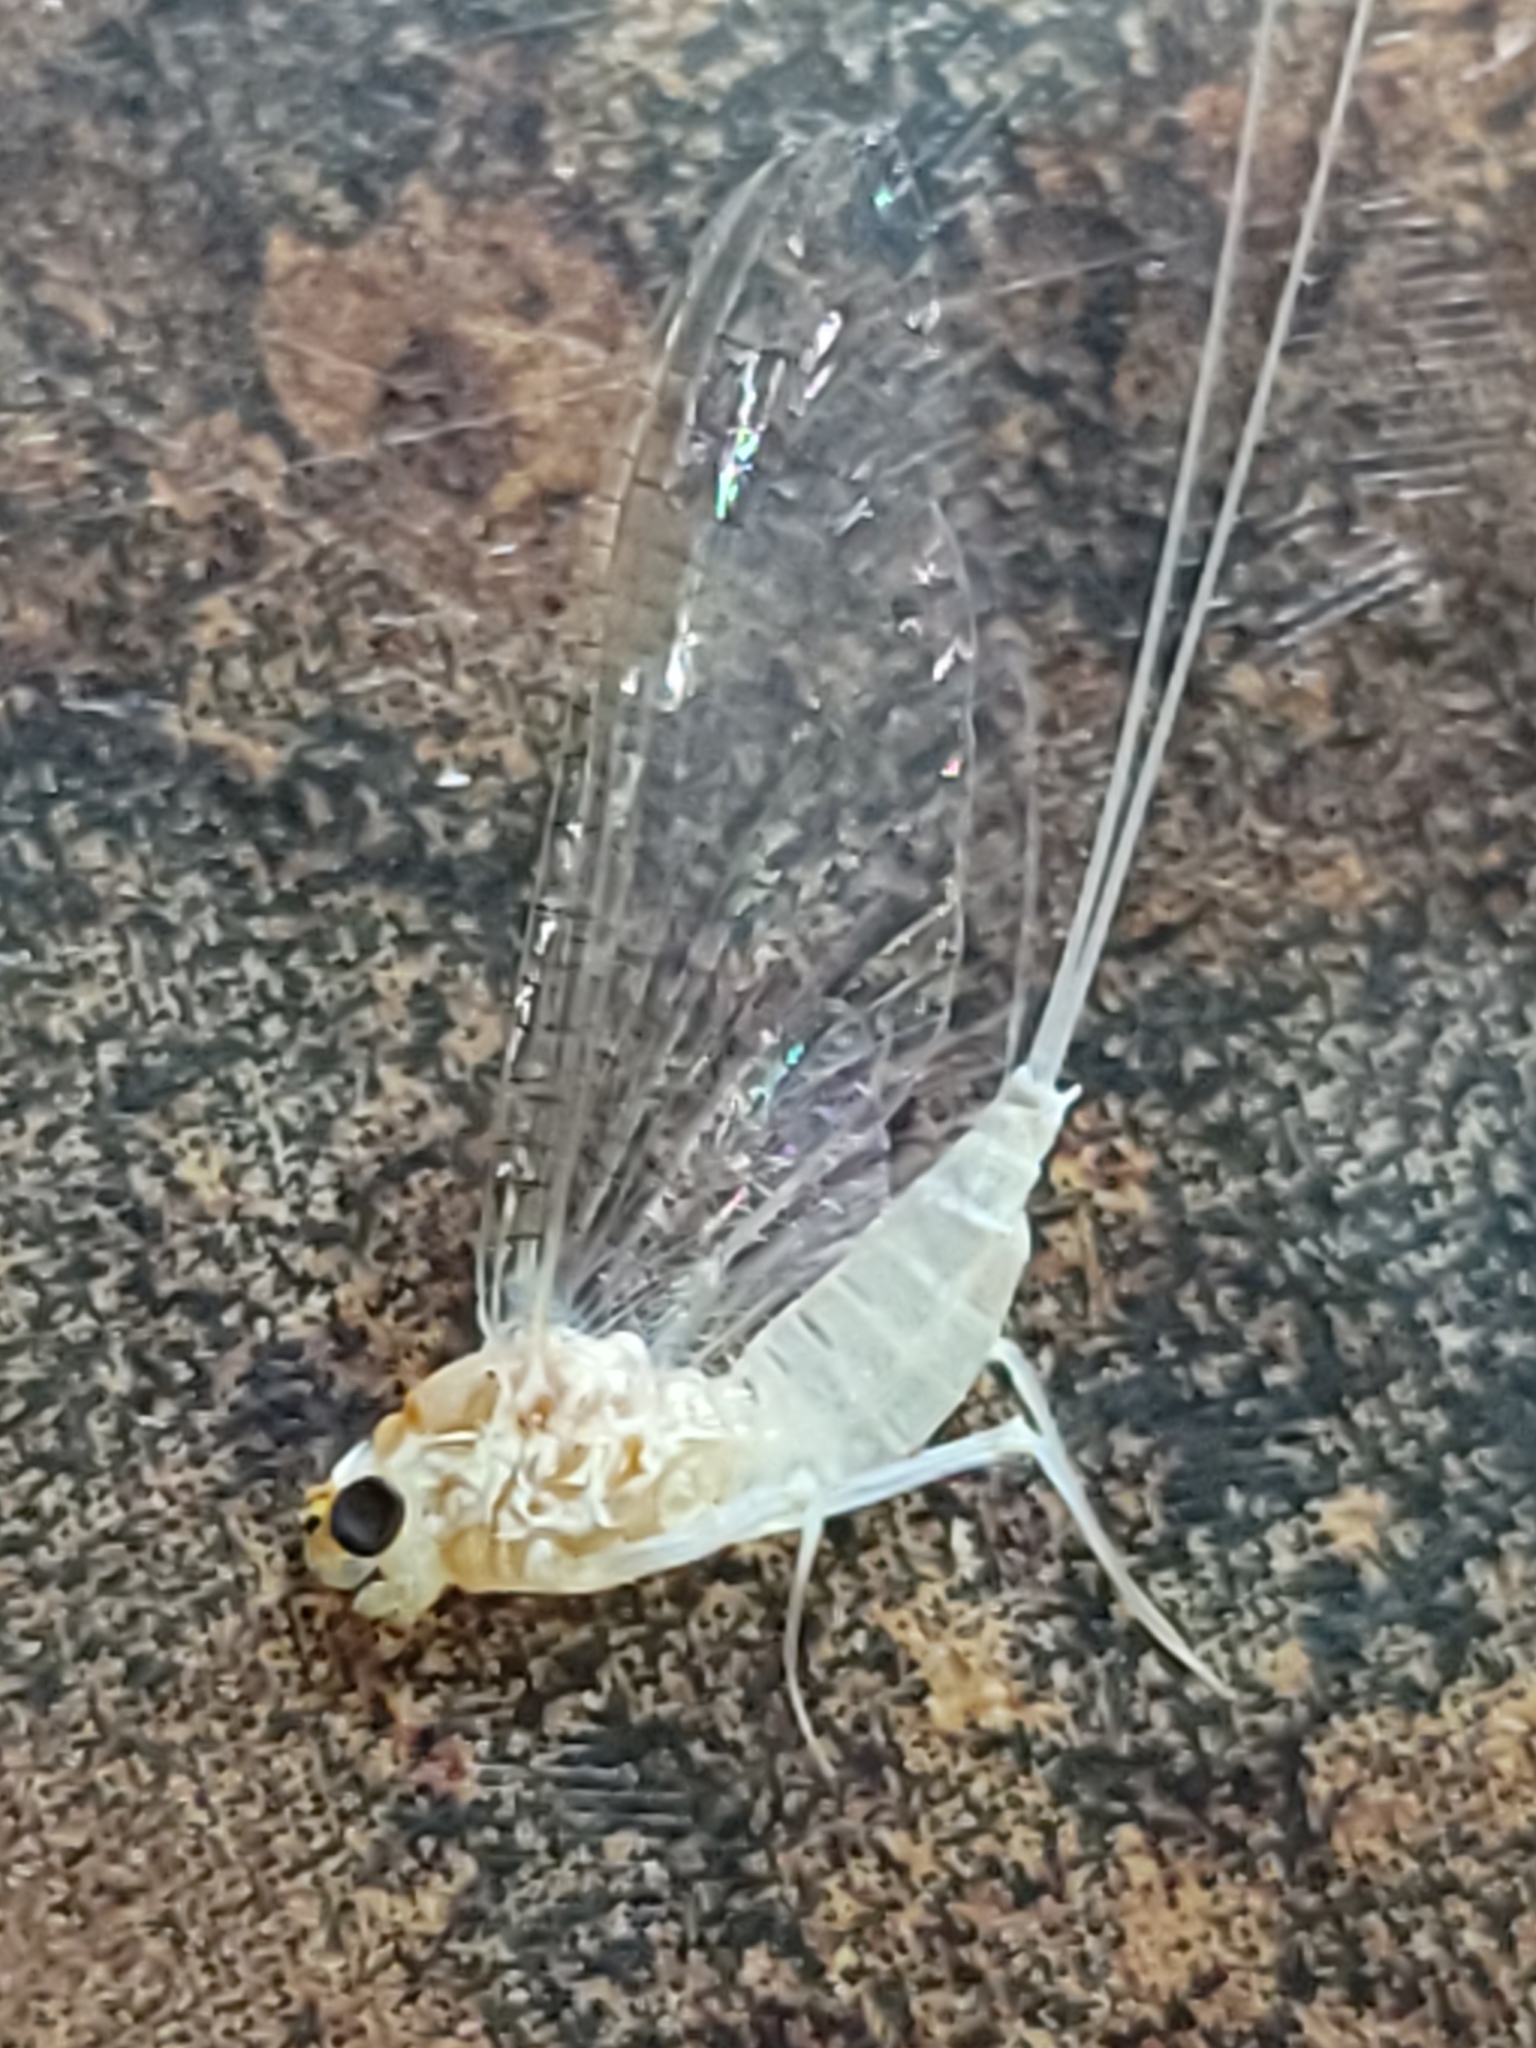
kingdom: Animalia
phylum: Arthropoda
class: Insecta
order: Ephemeroptera
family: Heptageniidae
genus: Maccaffertium
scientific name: Maccaffertium terminatum
